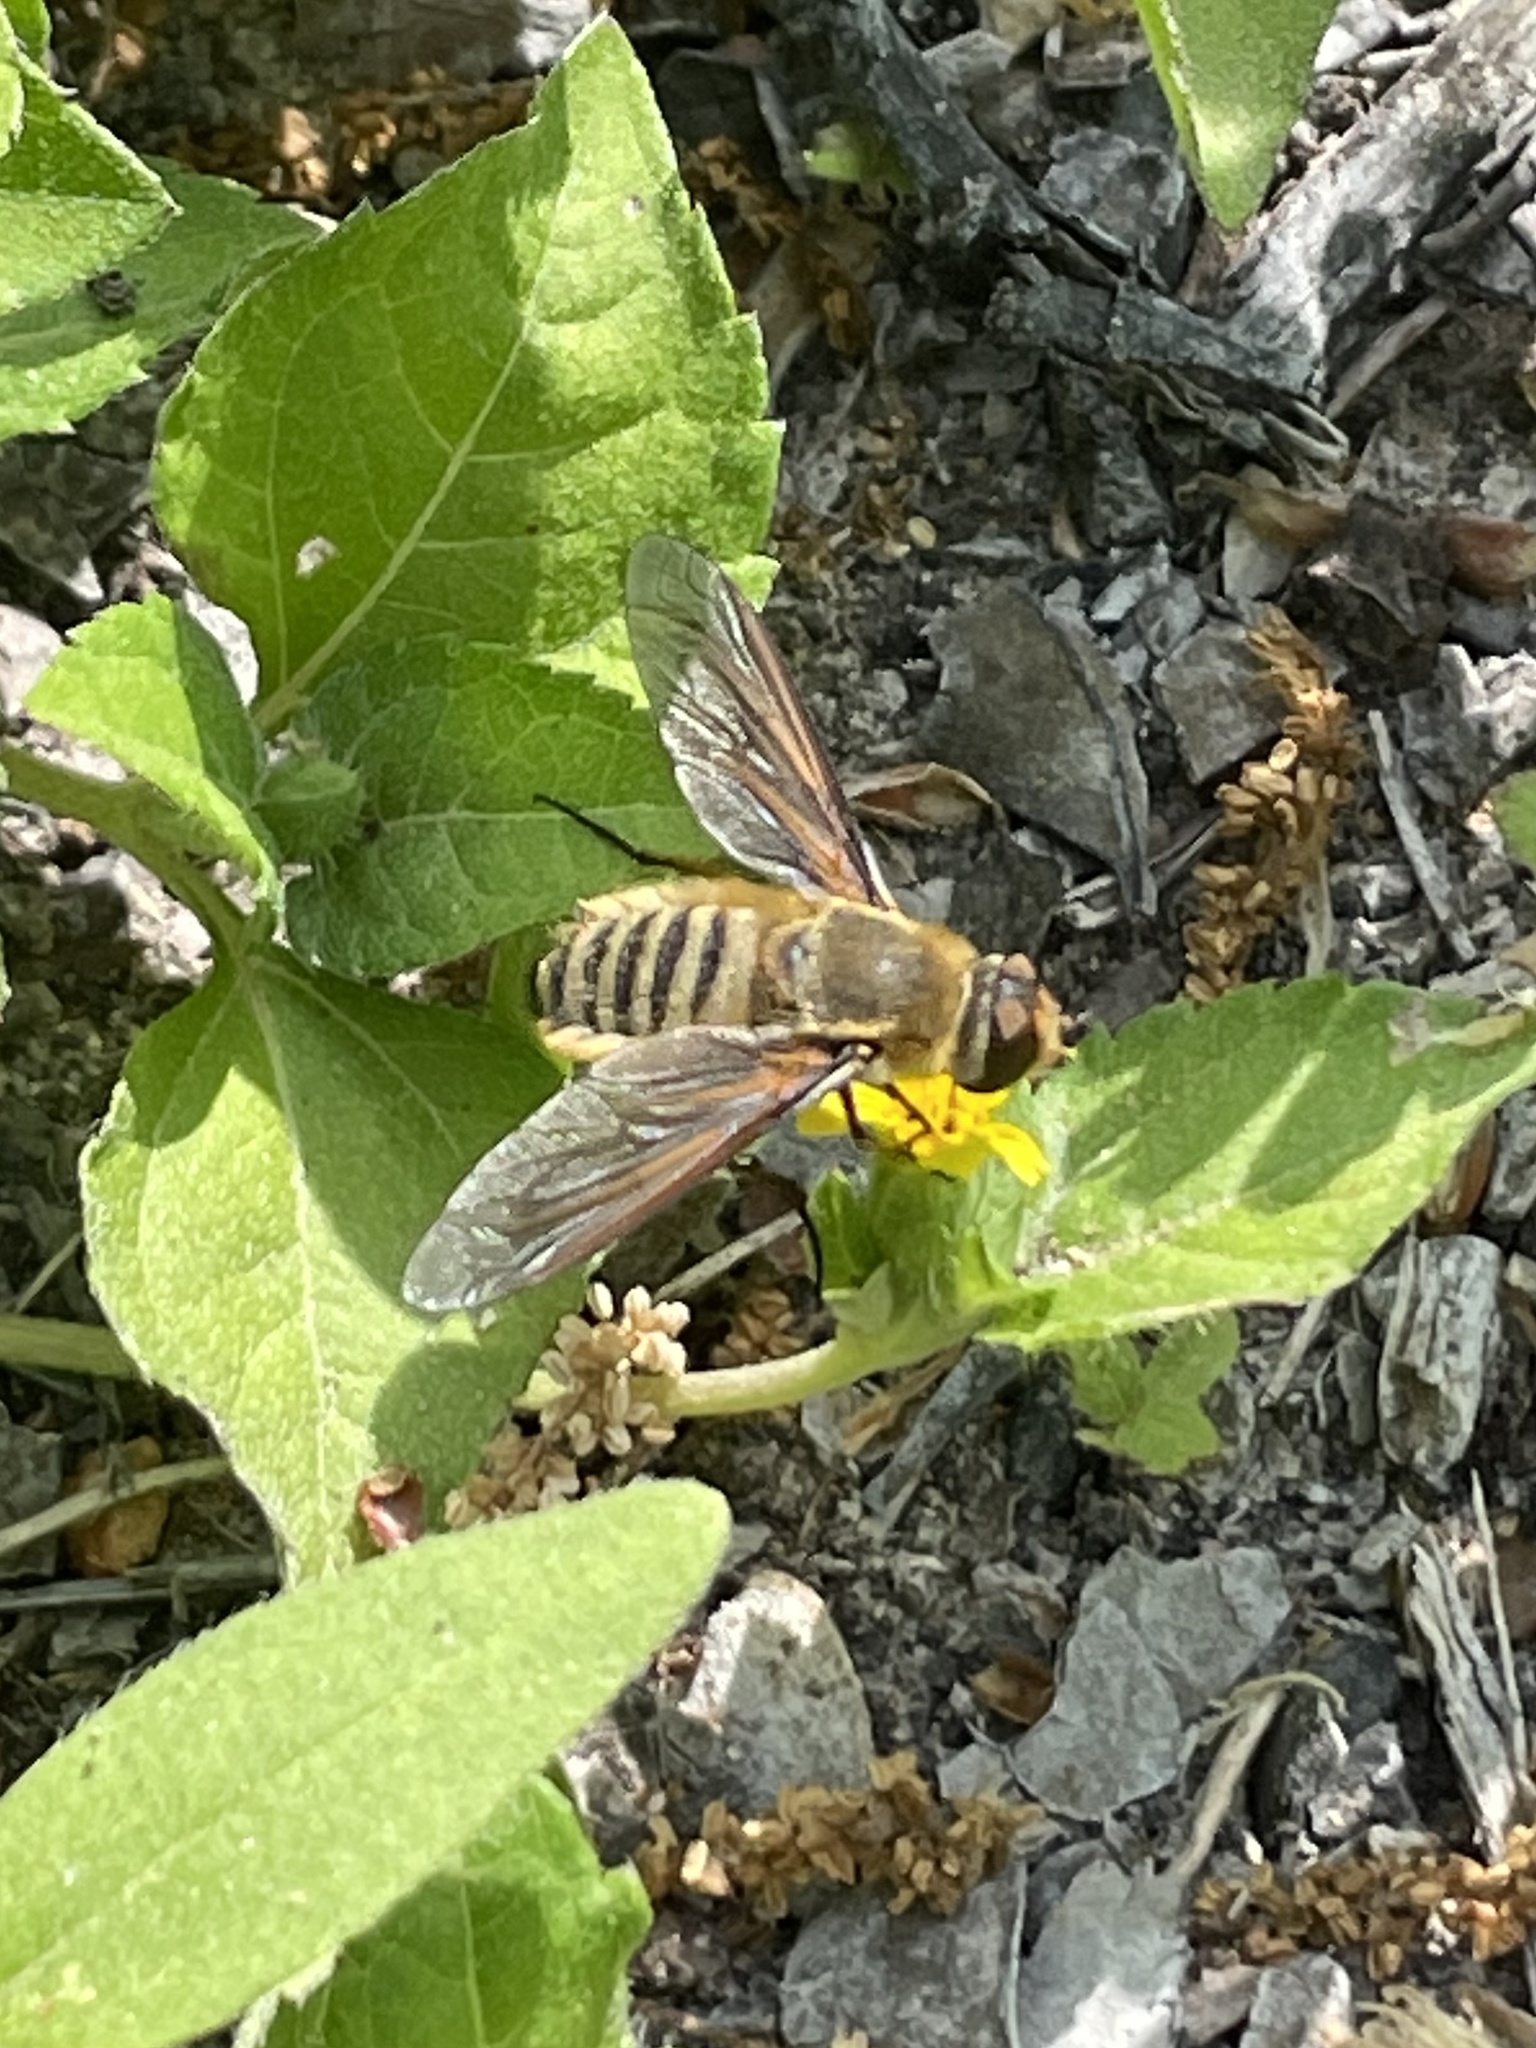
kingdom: Animalia
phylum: Arthropoda
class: Insecta
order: Diptera
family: Bombyliidae
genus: Poecilanthrax
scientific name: Poecilanthrax lucifer
